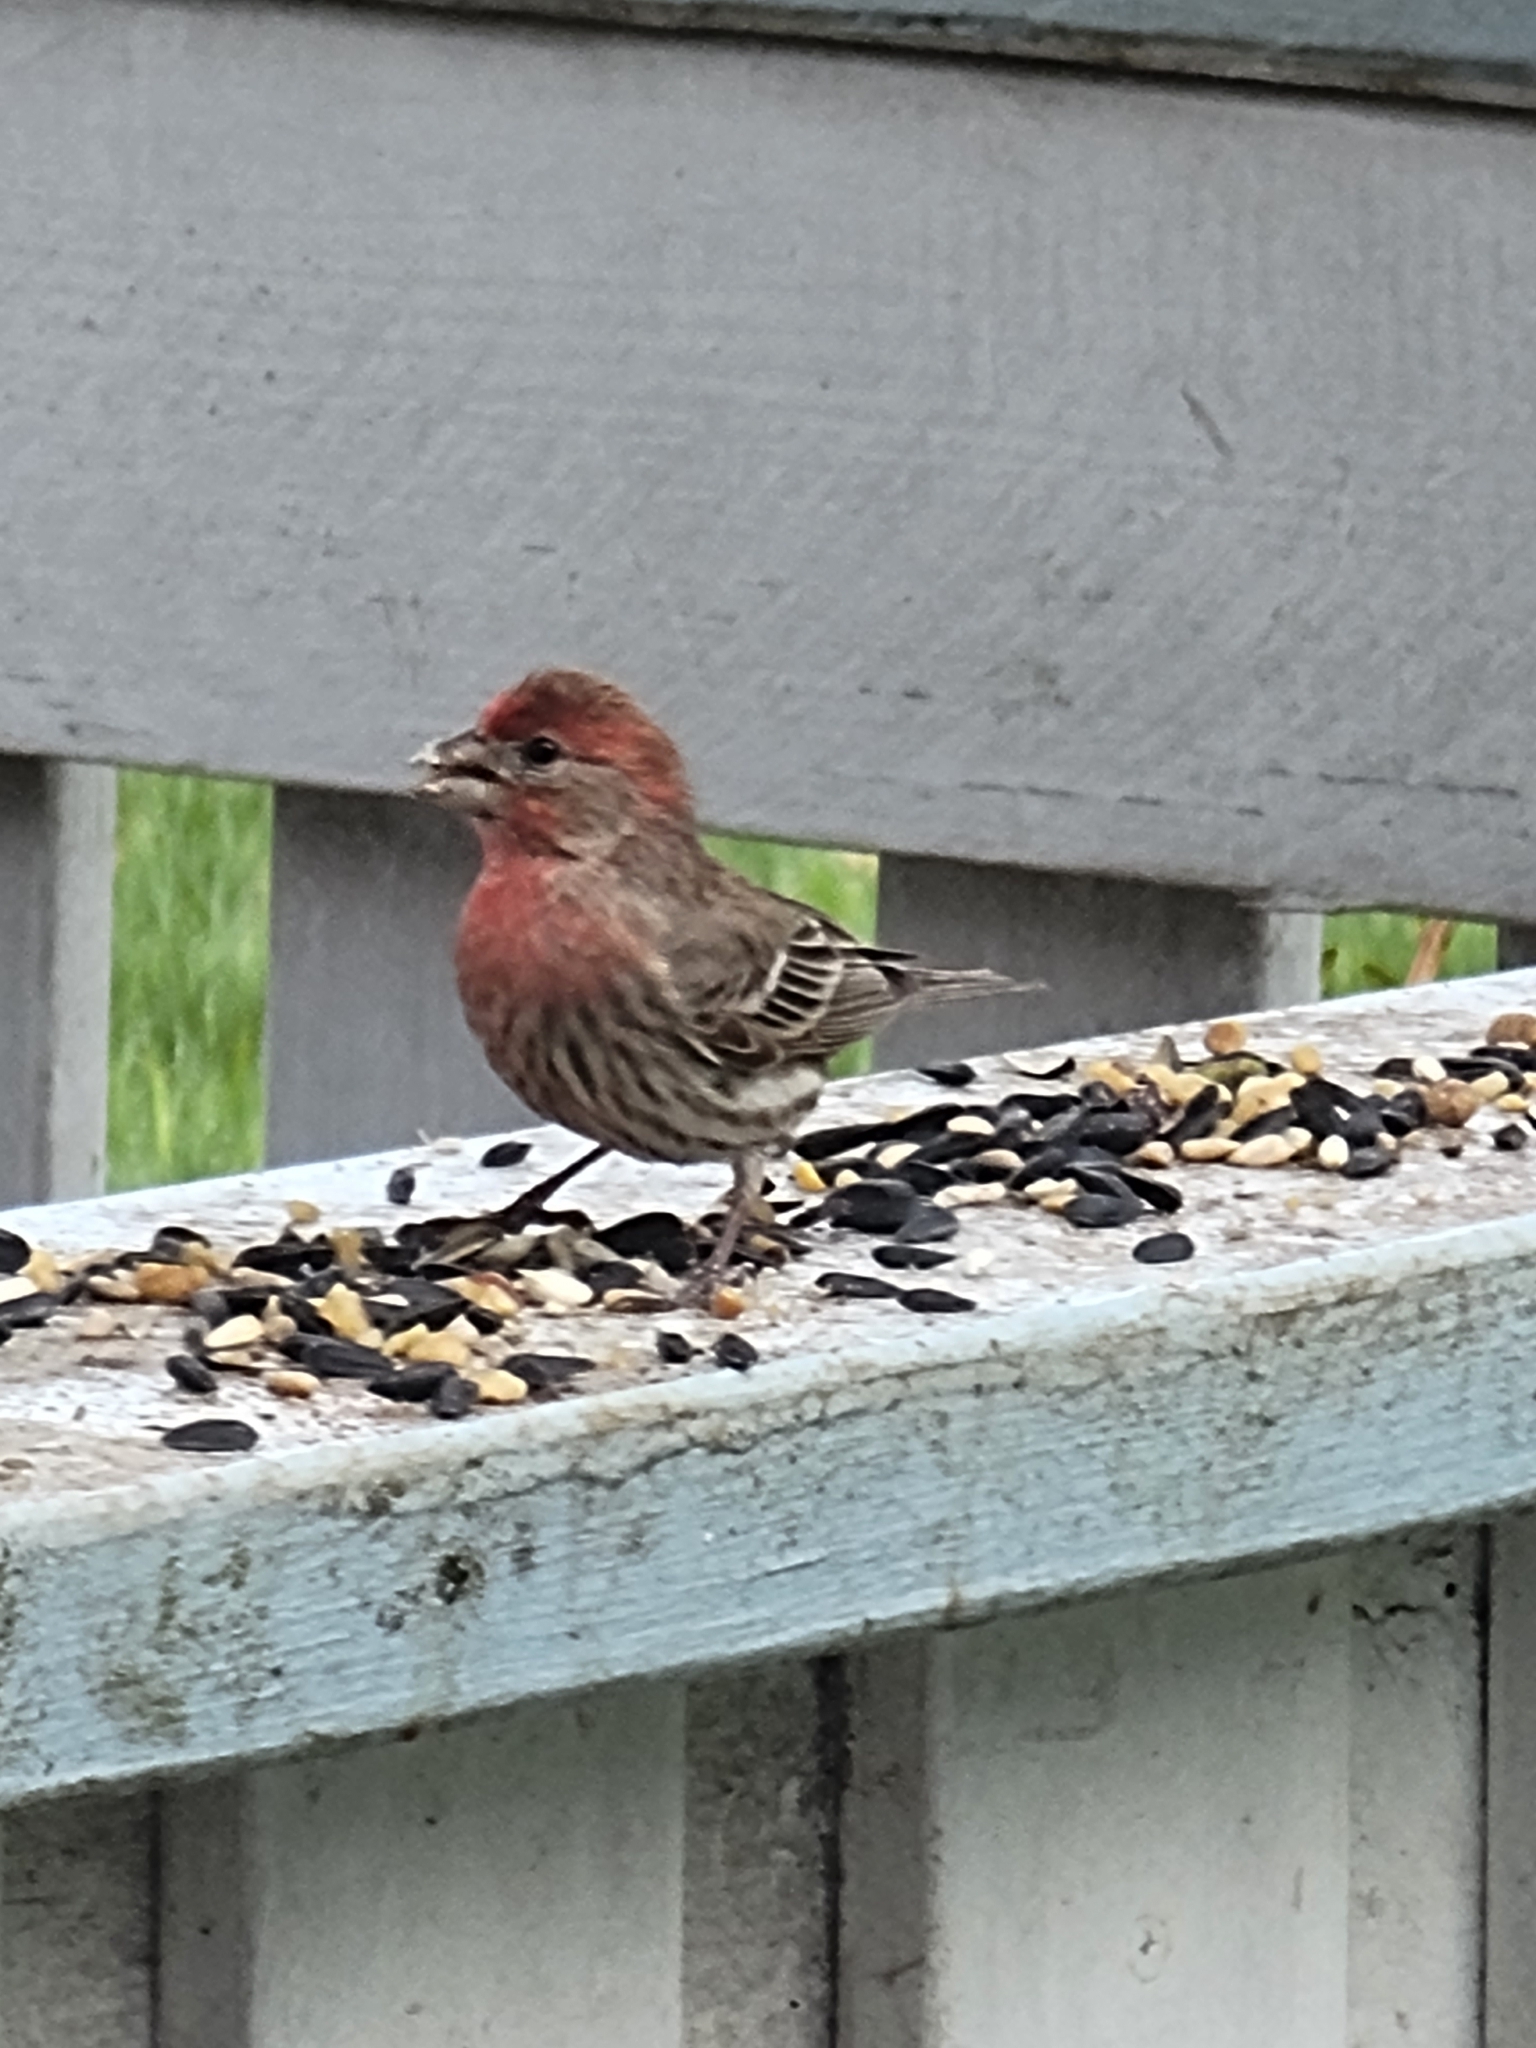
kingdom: Animalia
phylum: Chordata
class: Aves
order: Passeriformes
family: Fringillidae
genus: Haemorhous
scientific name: Haemorhous mexicanus
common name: House finch
